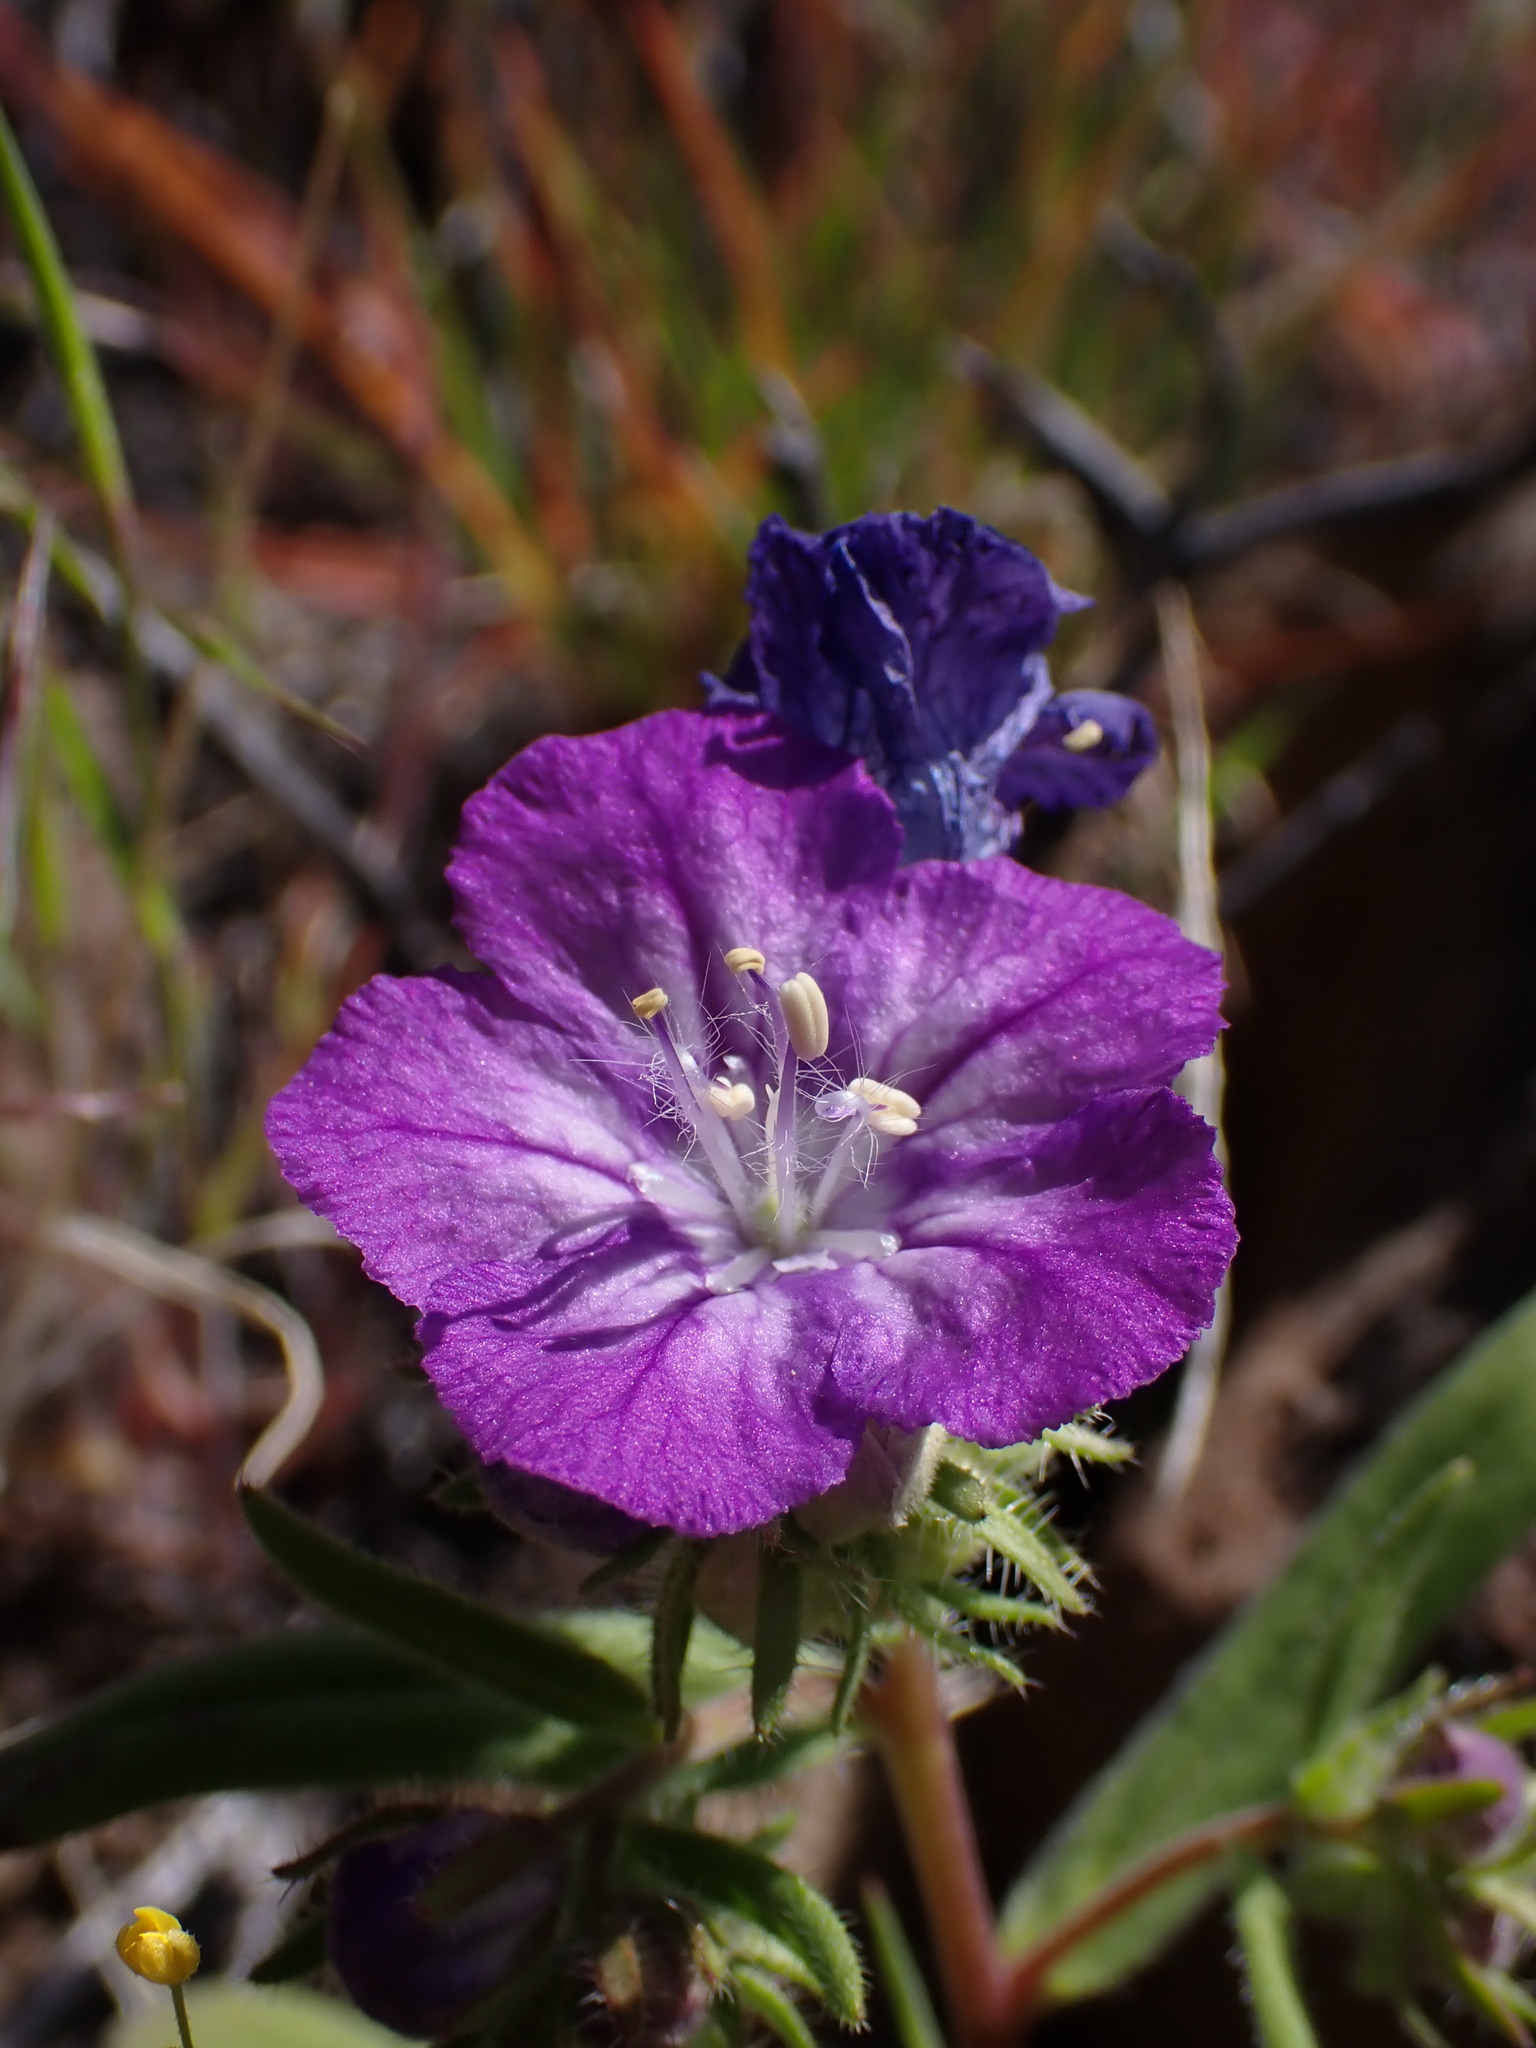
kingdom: Plantae
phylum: Tracheophyta
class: Magnoliopsida
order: Boraginales
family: Hydrophyllaceae
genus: Phacelia
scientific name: Phacelia linearis
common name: Linear-leaved phacelia
